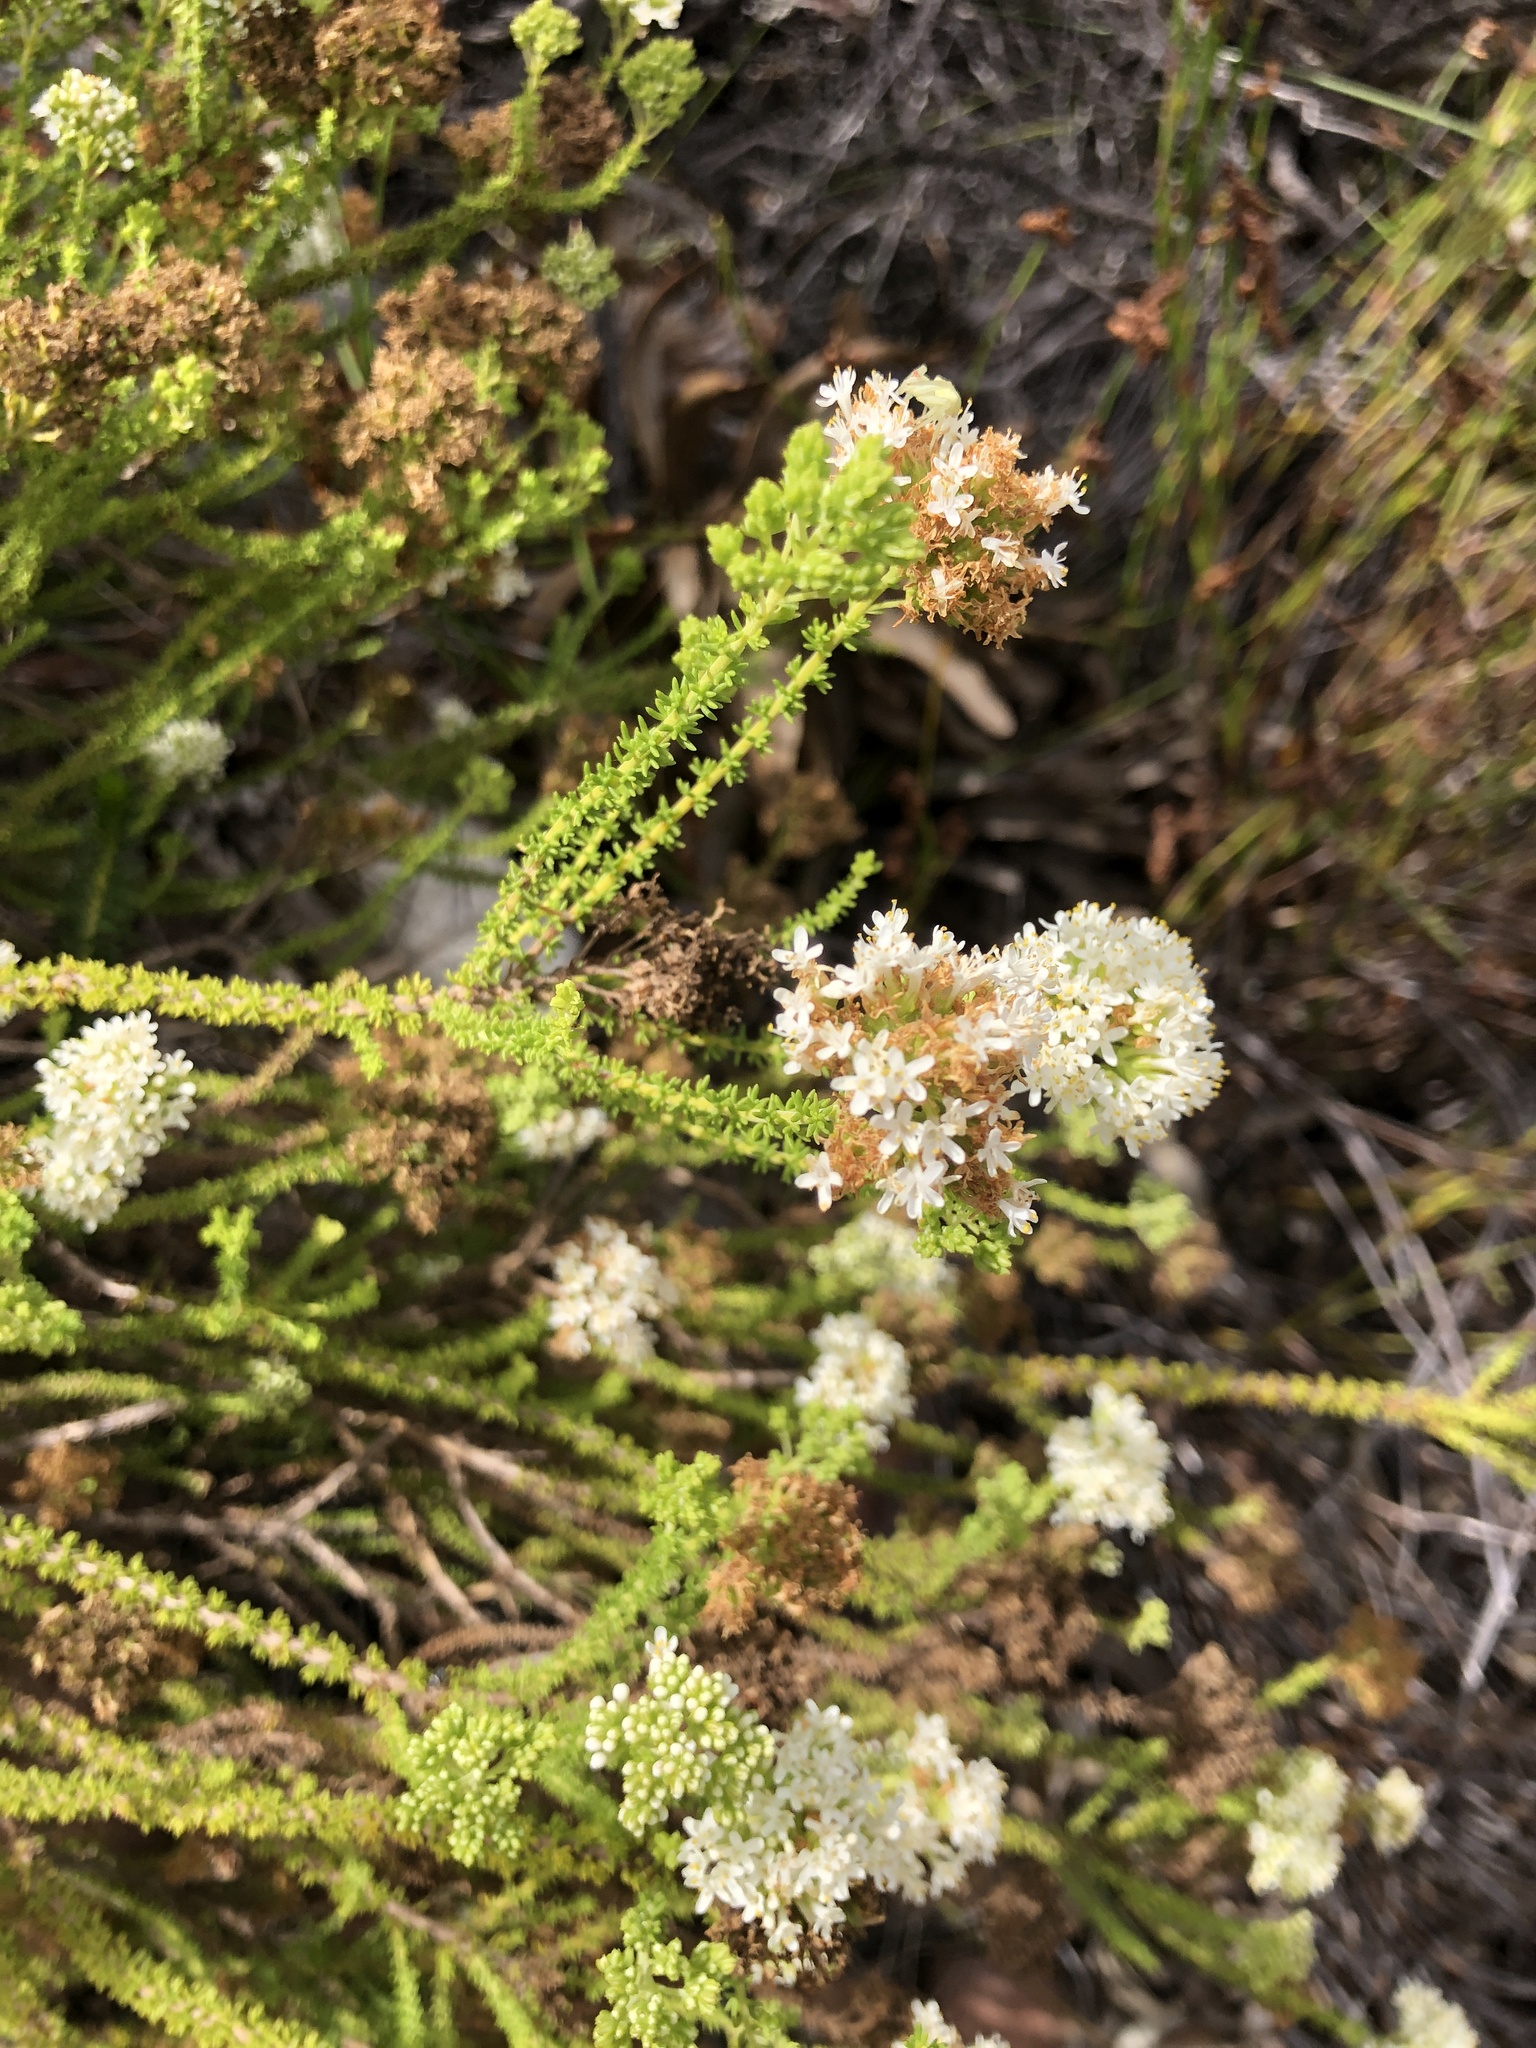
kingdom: Plantae
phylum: Tracheophyta
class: Magnoliopsida
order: Lamiales
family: Scrophulariaceae
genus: Selago
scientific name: Selago dolosa
